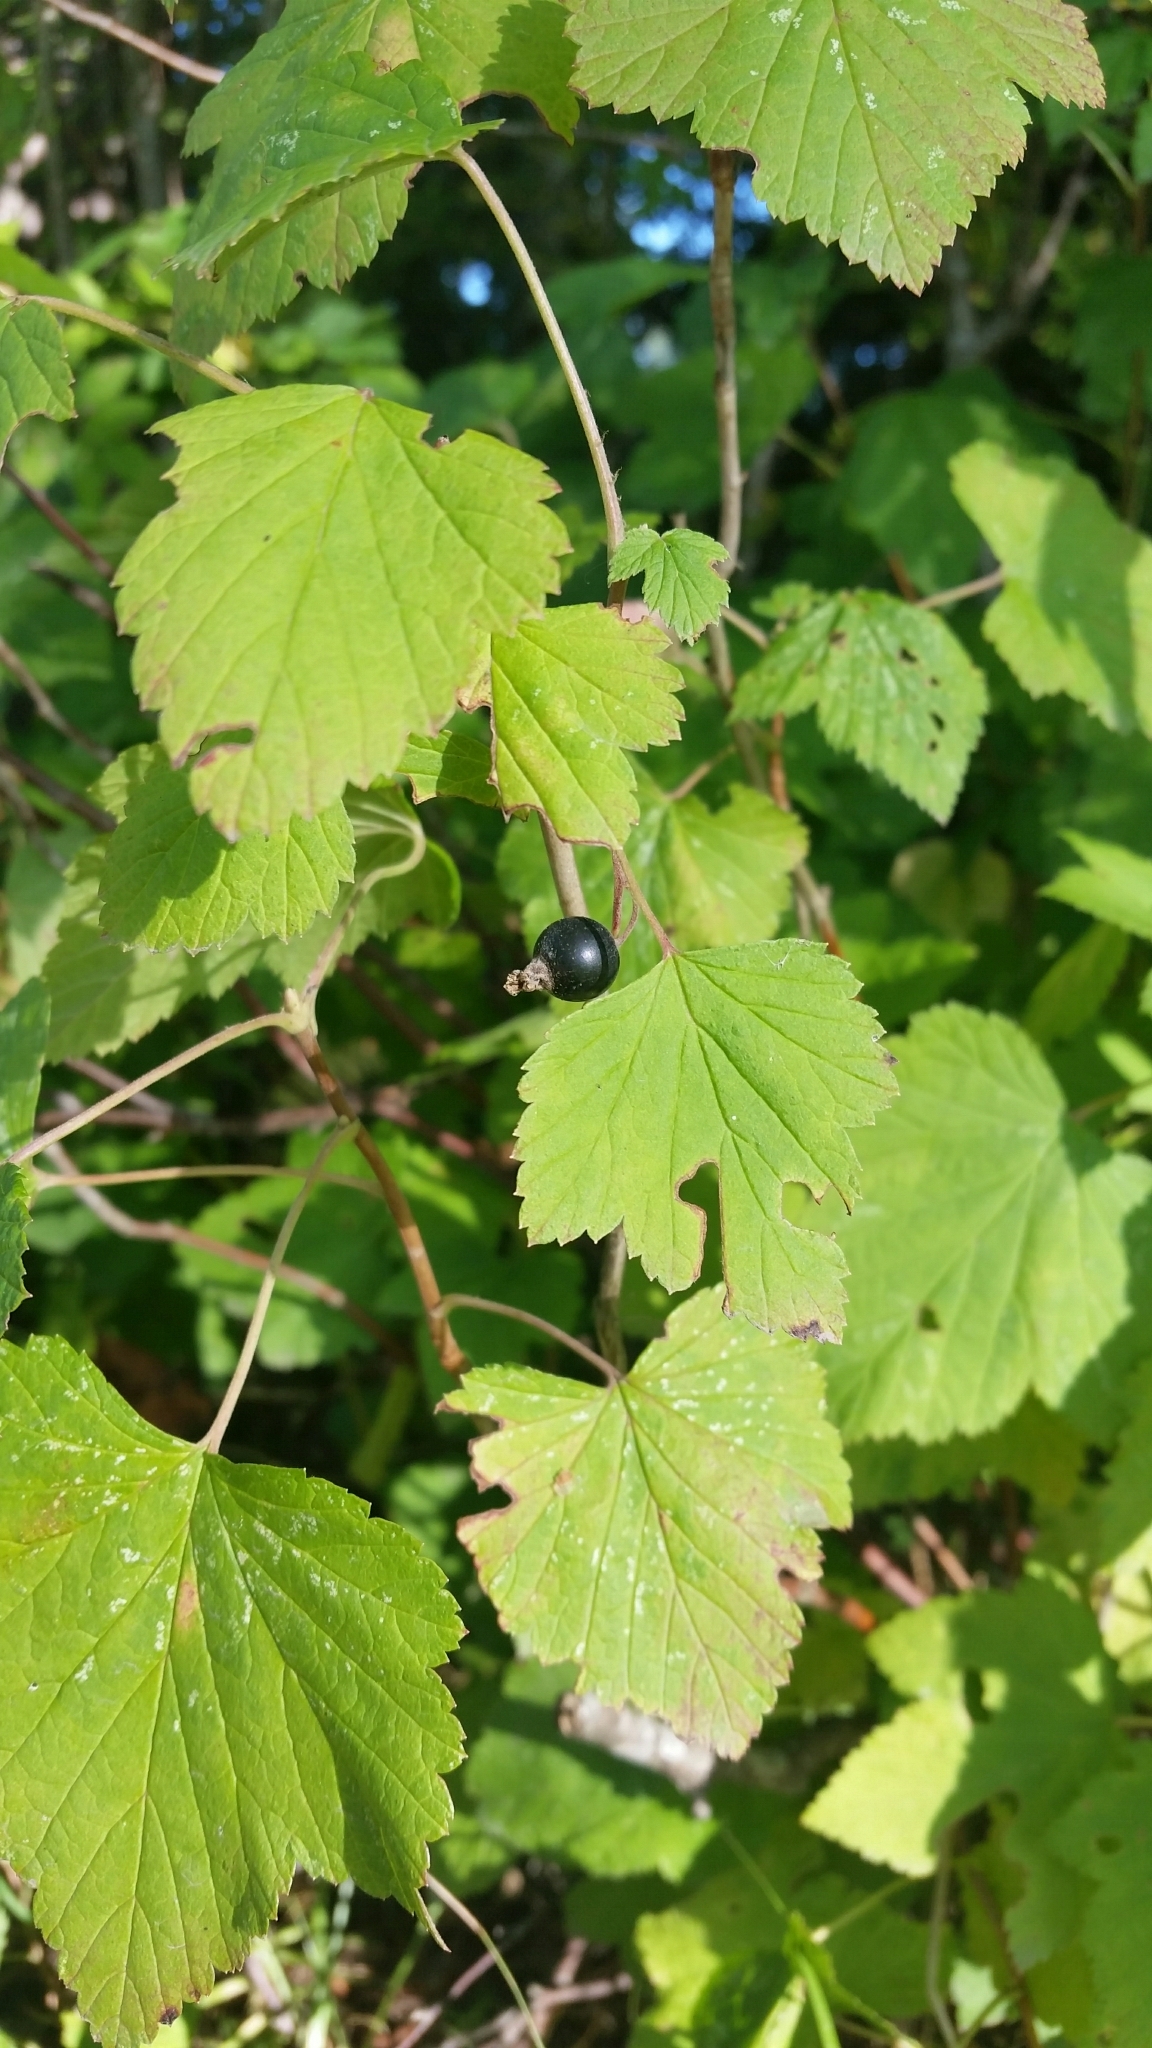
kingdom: Plantae
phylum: Tracheophyta
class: Magnoliopsida
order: Saxifragales
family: Grossulariaceae
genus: Ribes
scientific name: Ribes nigrum
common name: Black currant
